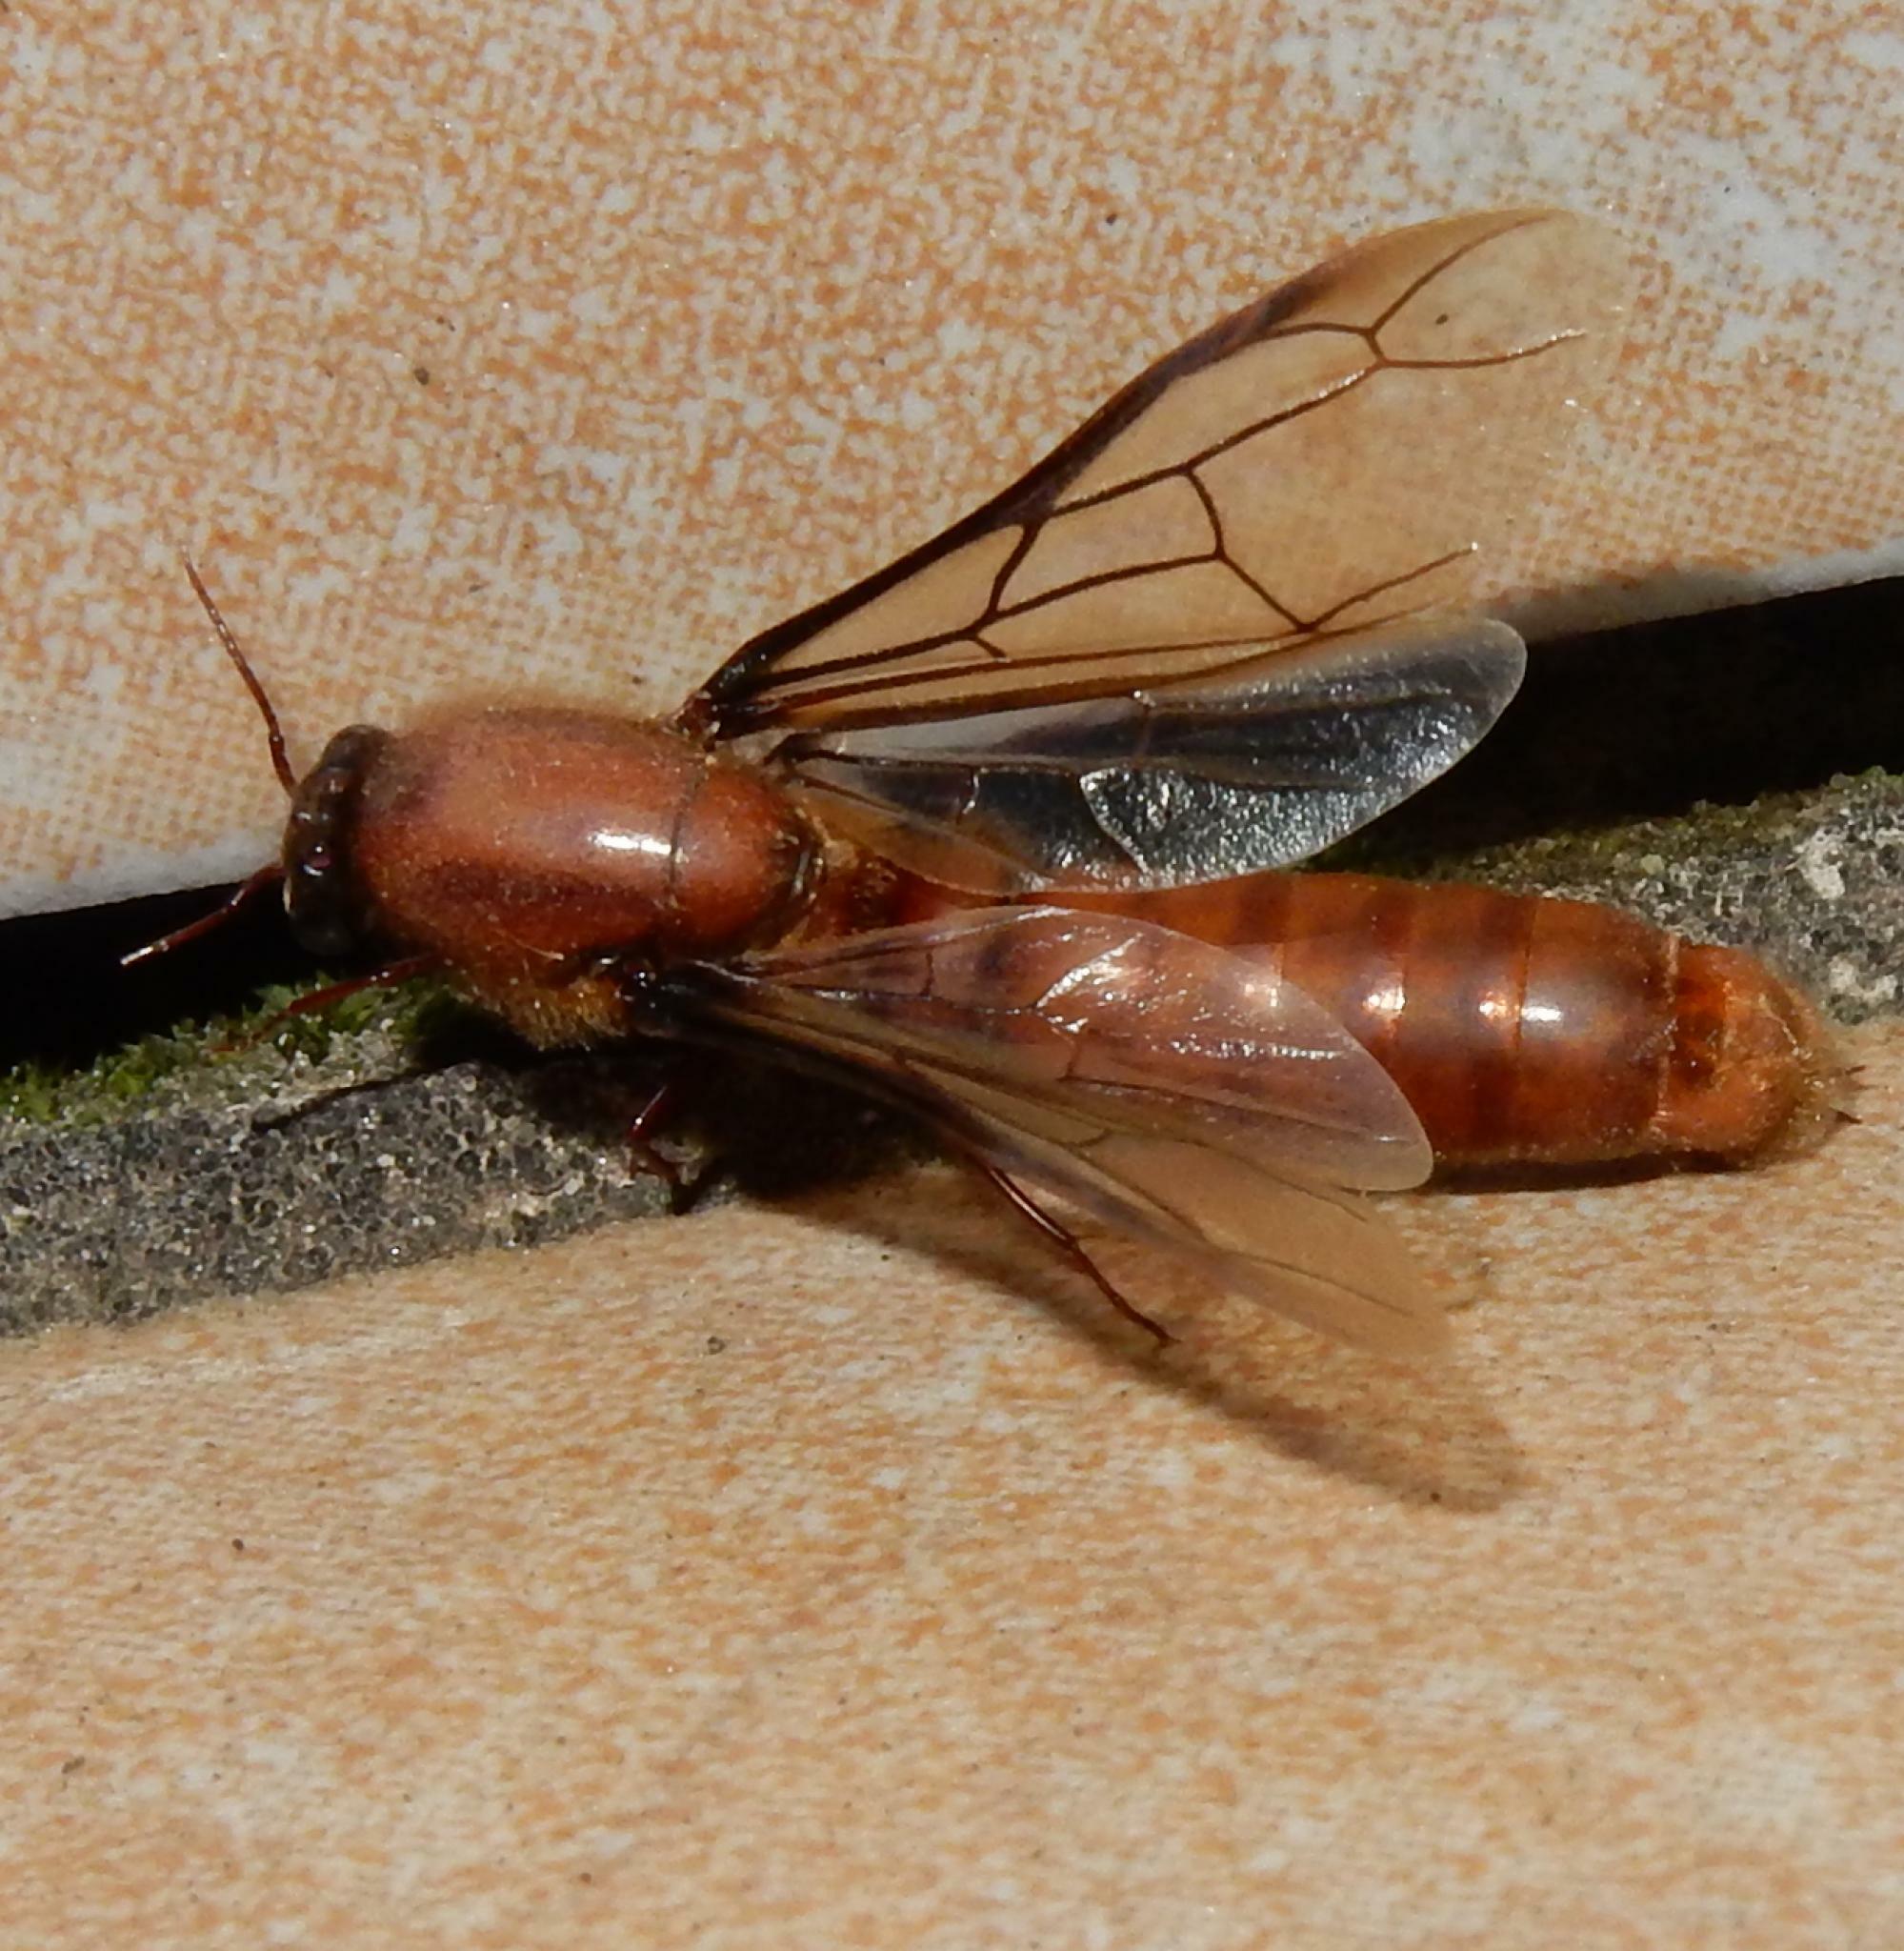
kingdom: Animalia
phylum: Arthropoda
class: Insecta
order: Hymenoptera
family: Formicidae
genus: Dorylus
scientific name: Dorylus
